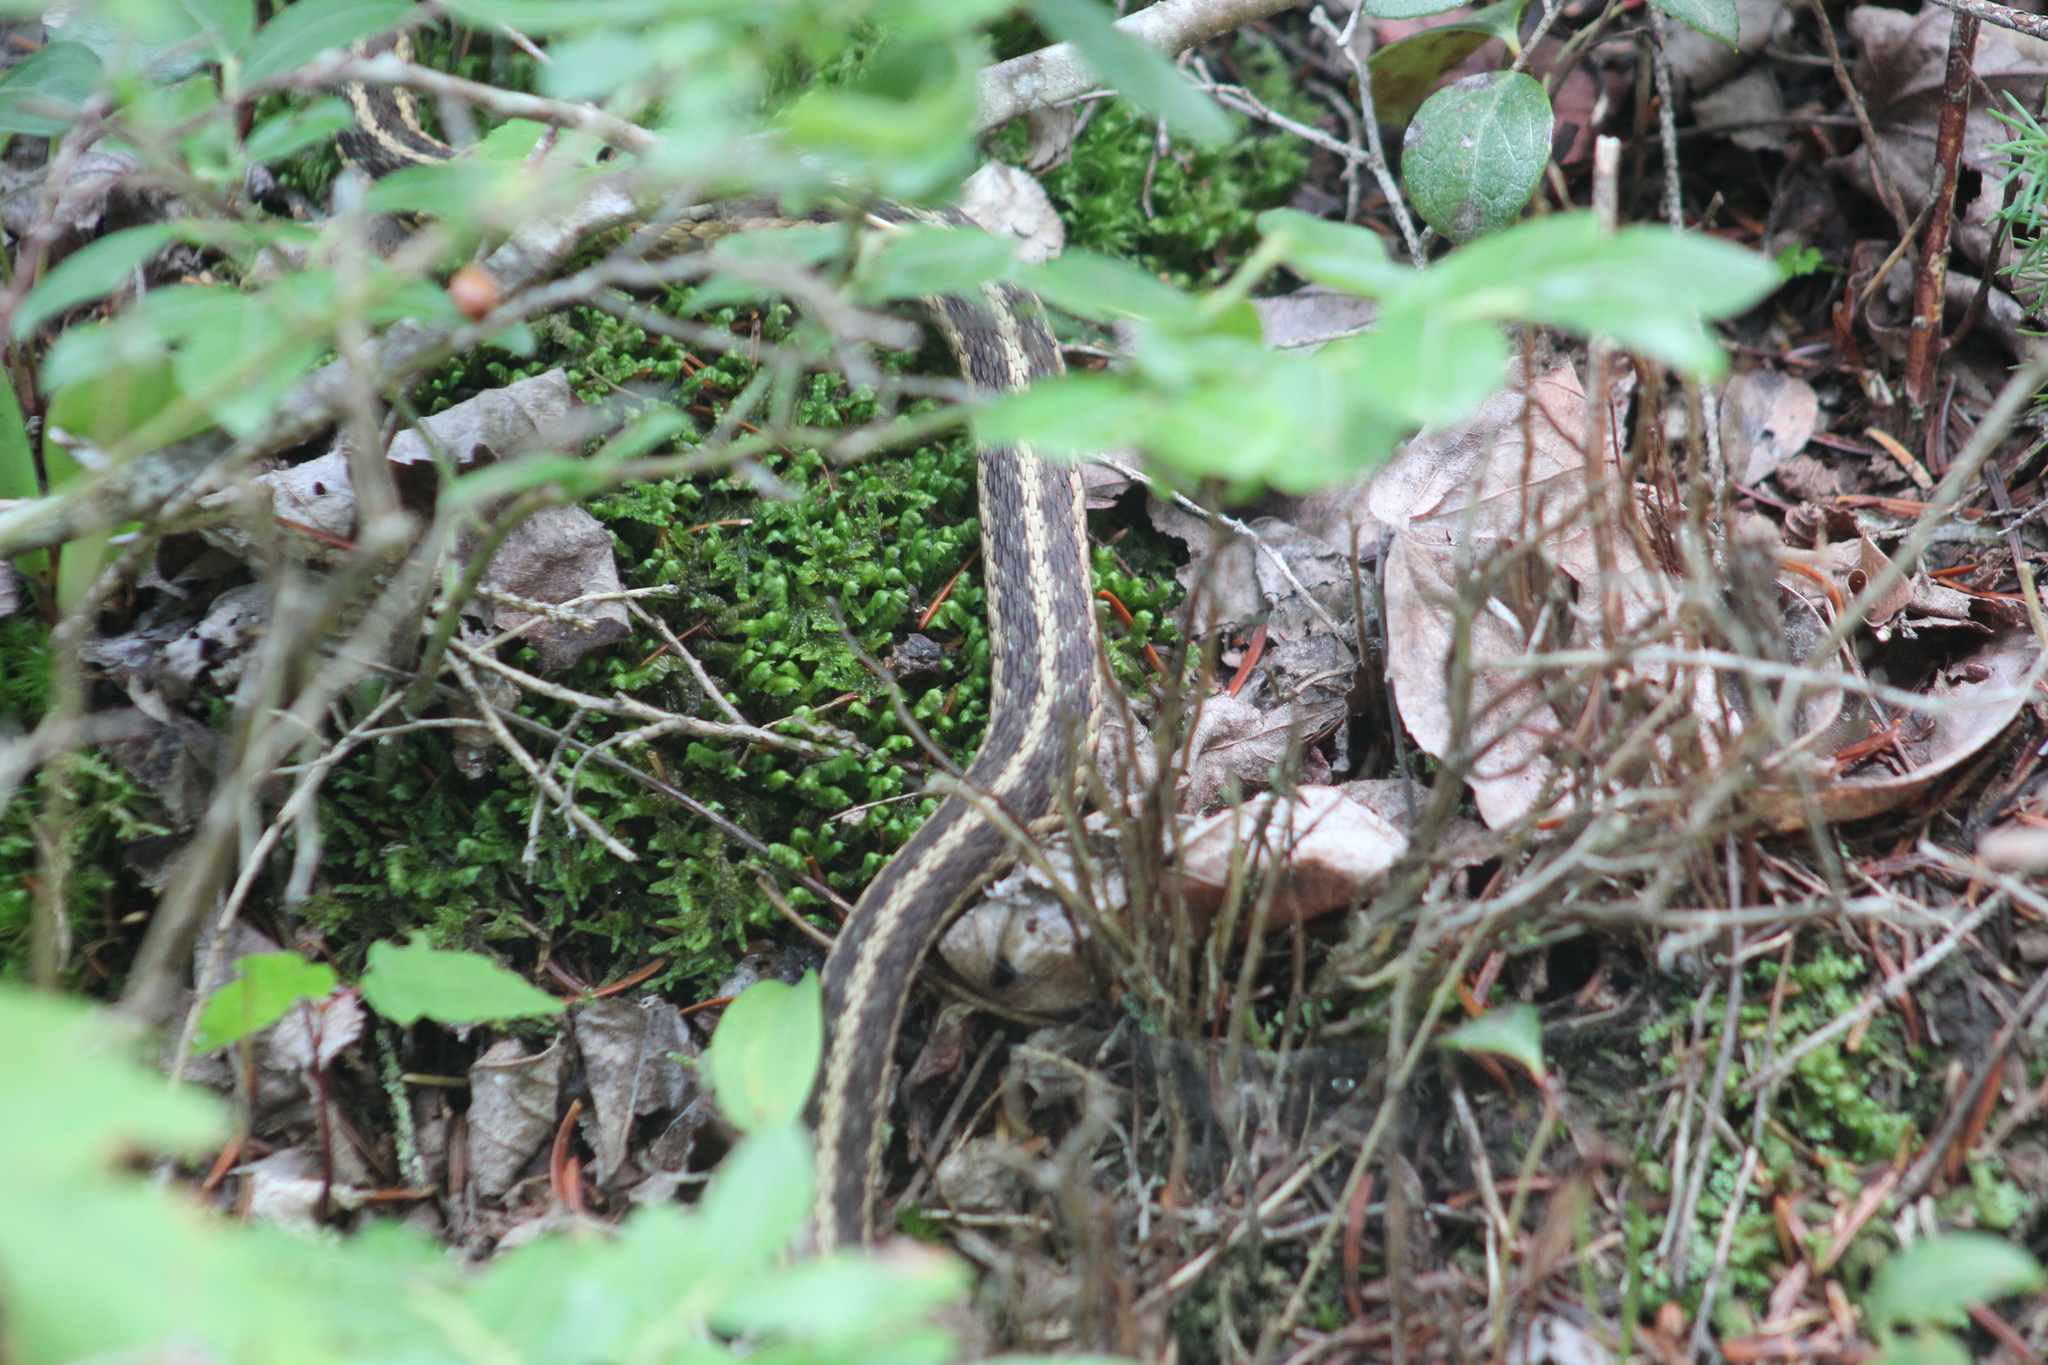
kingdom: Animalia
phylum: Chordata
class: Squamata
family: Colubridae
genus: Thamnophis
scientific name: Thamnophis sirtalis
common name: Common garter snake
